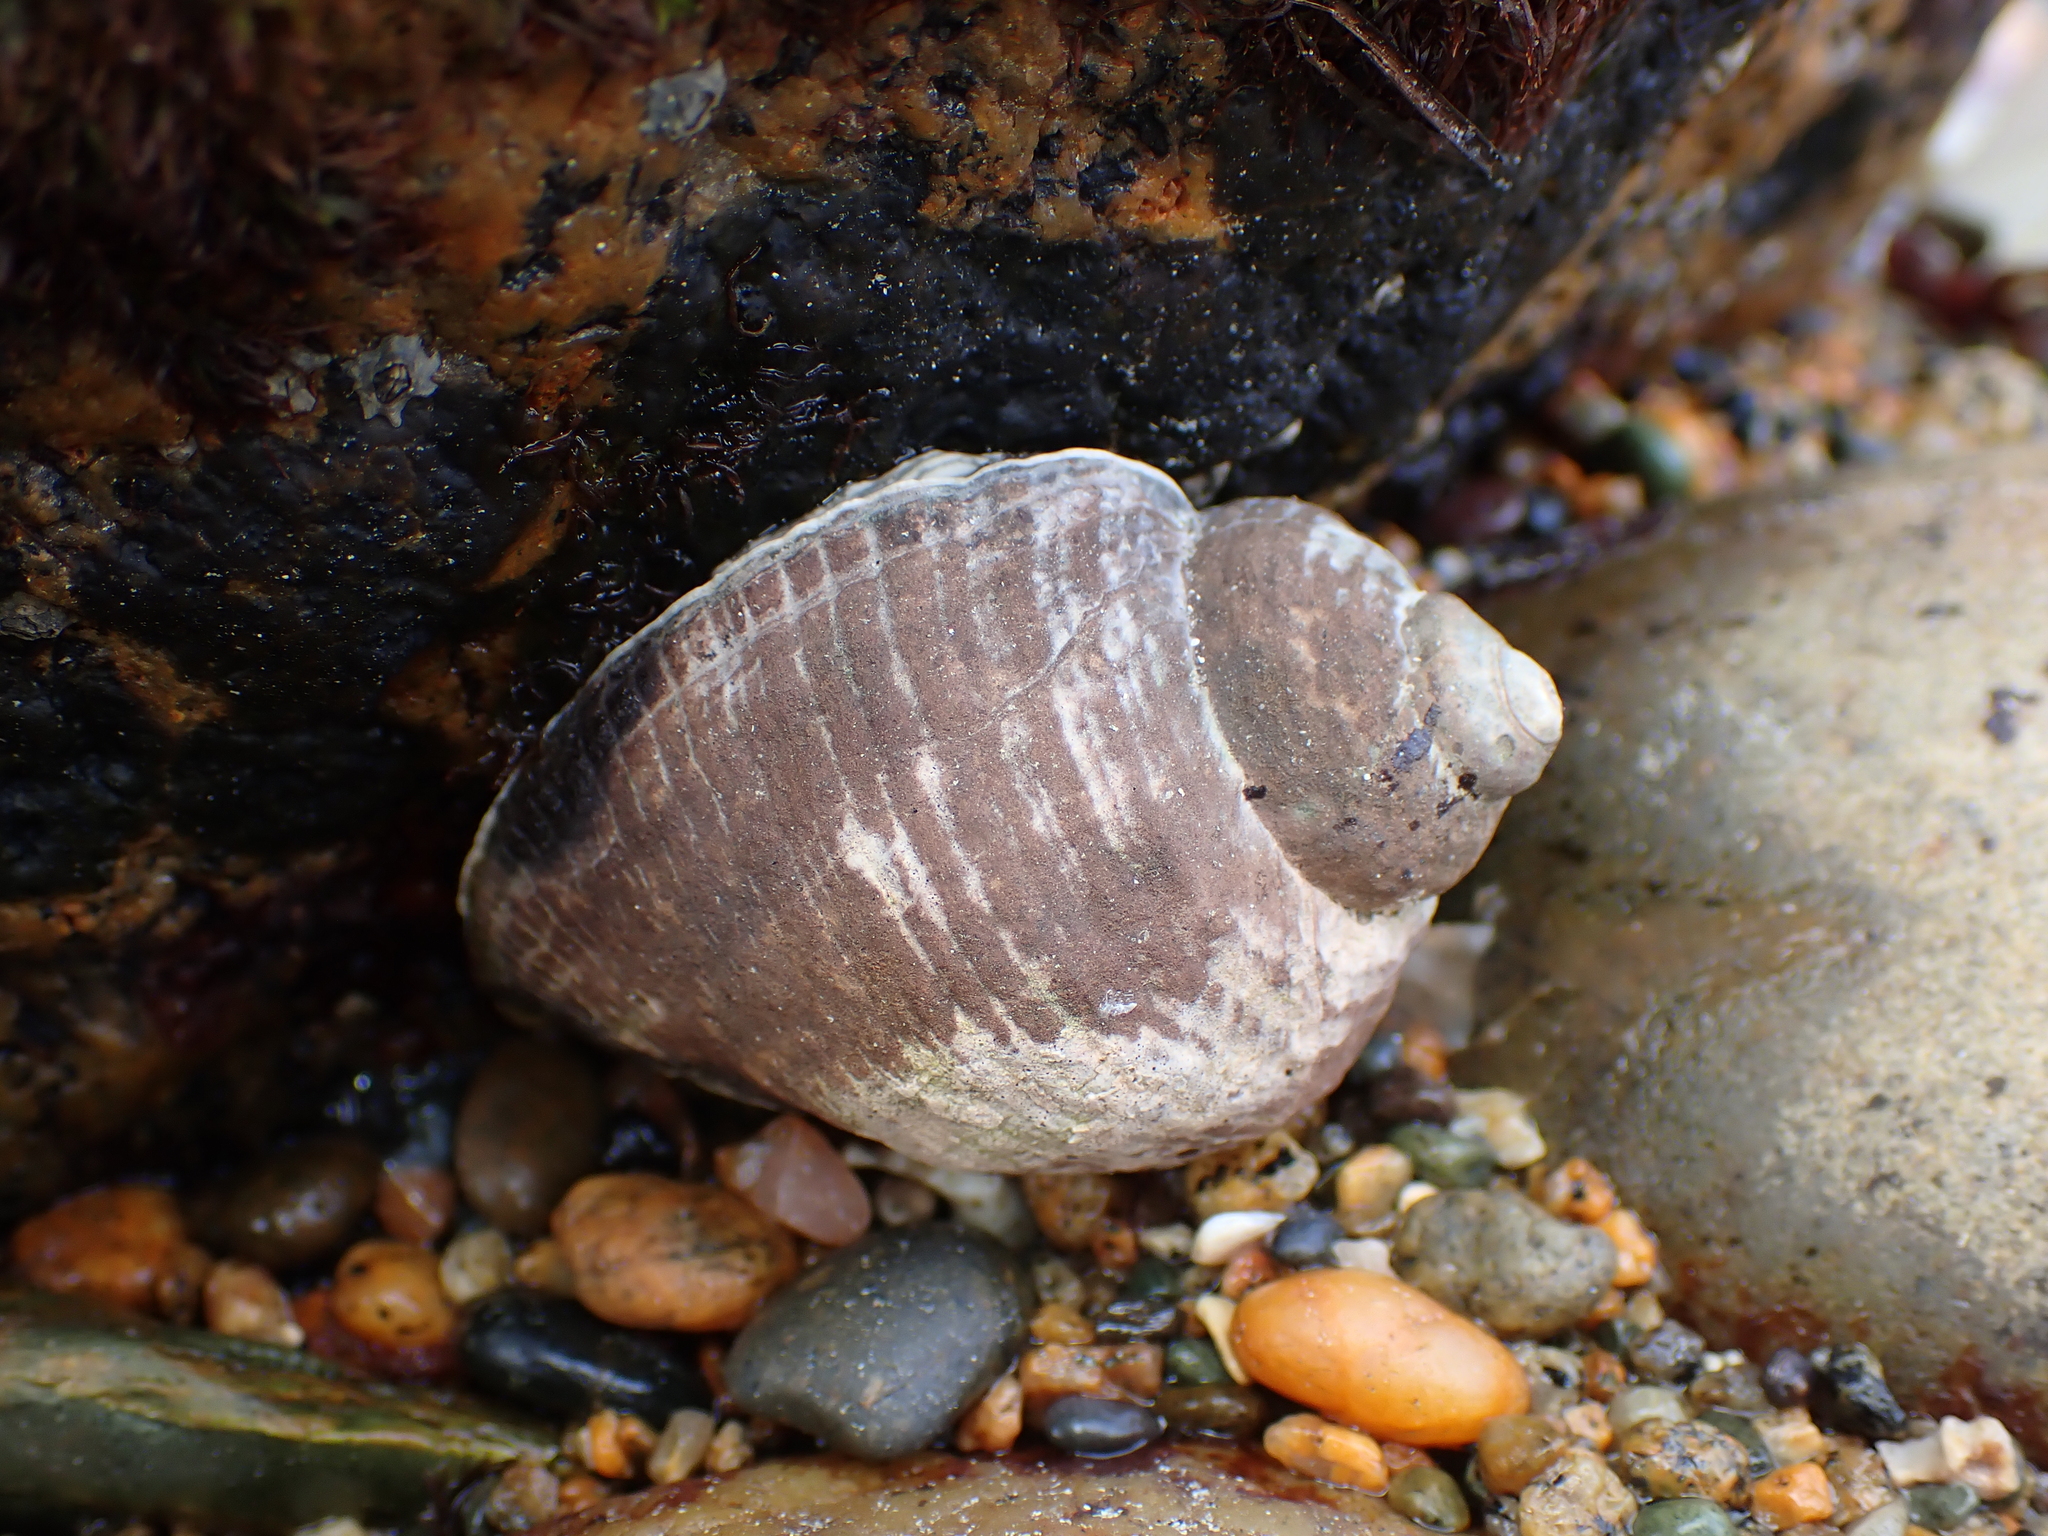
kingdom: Animalia
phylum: Mollusca
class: Gastropoda
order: Neogastropoda
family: Muricidae
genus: Haustrum
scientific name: Haustrum haustorium
